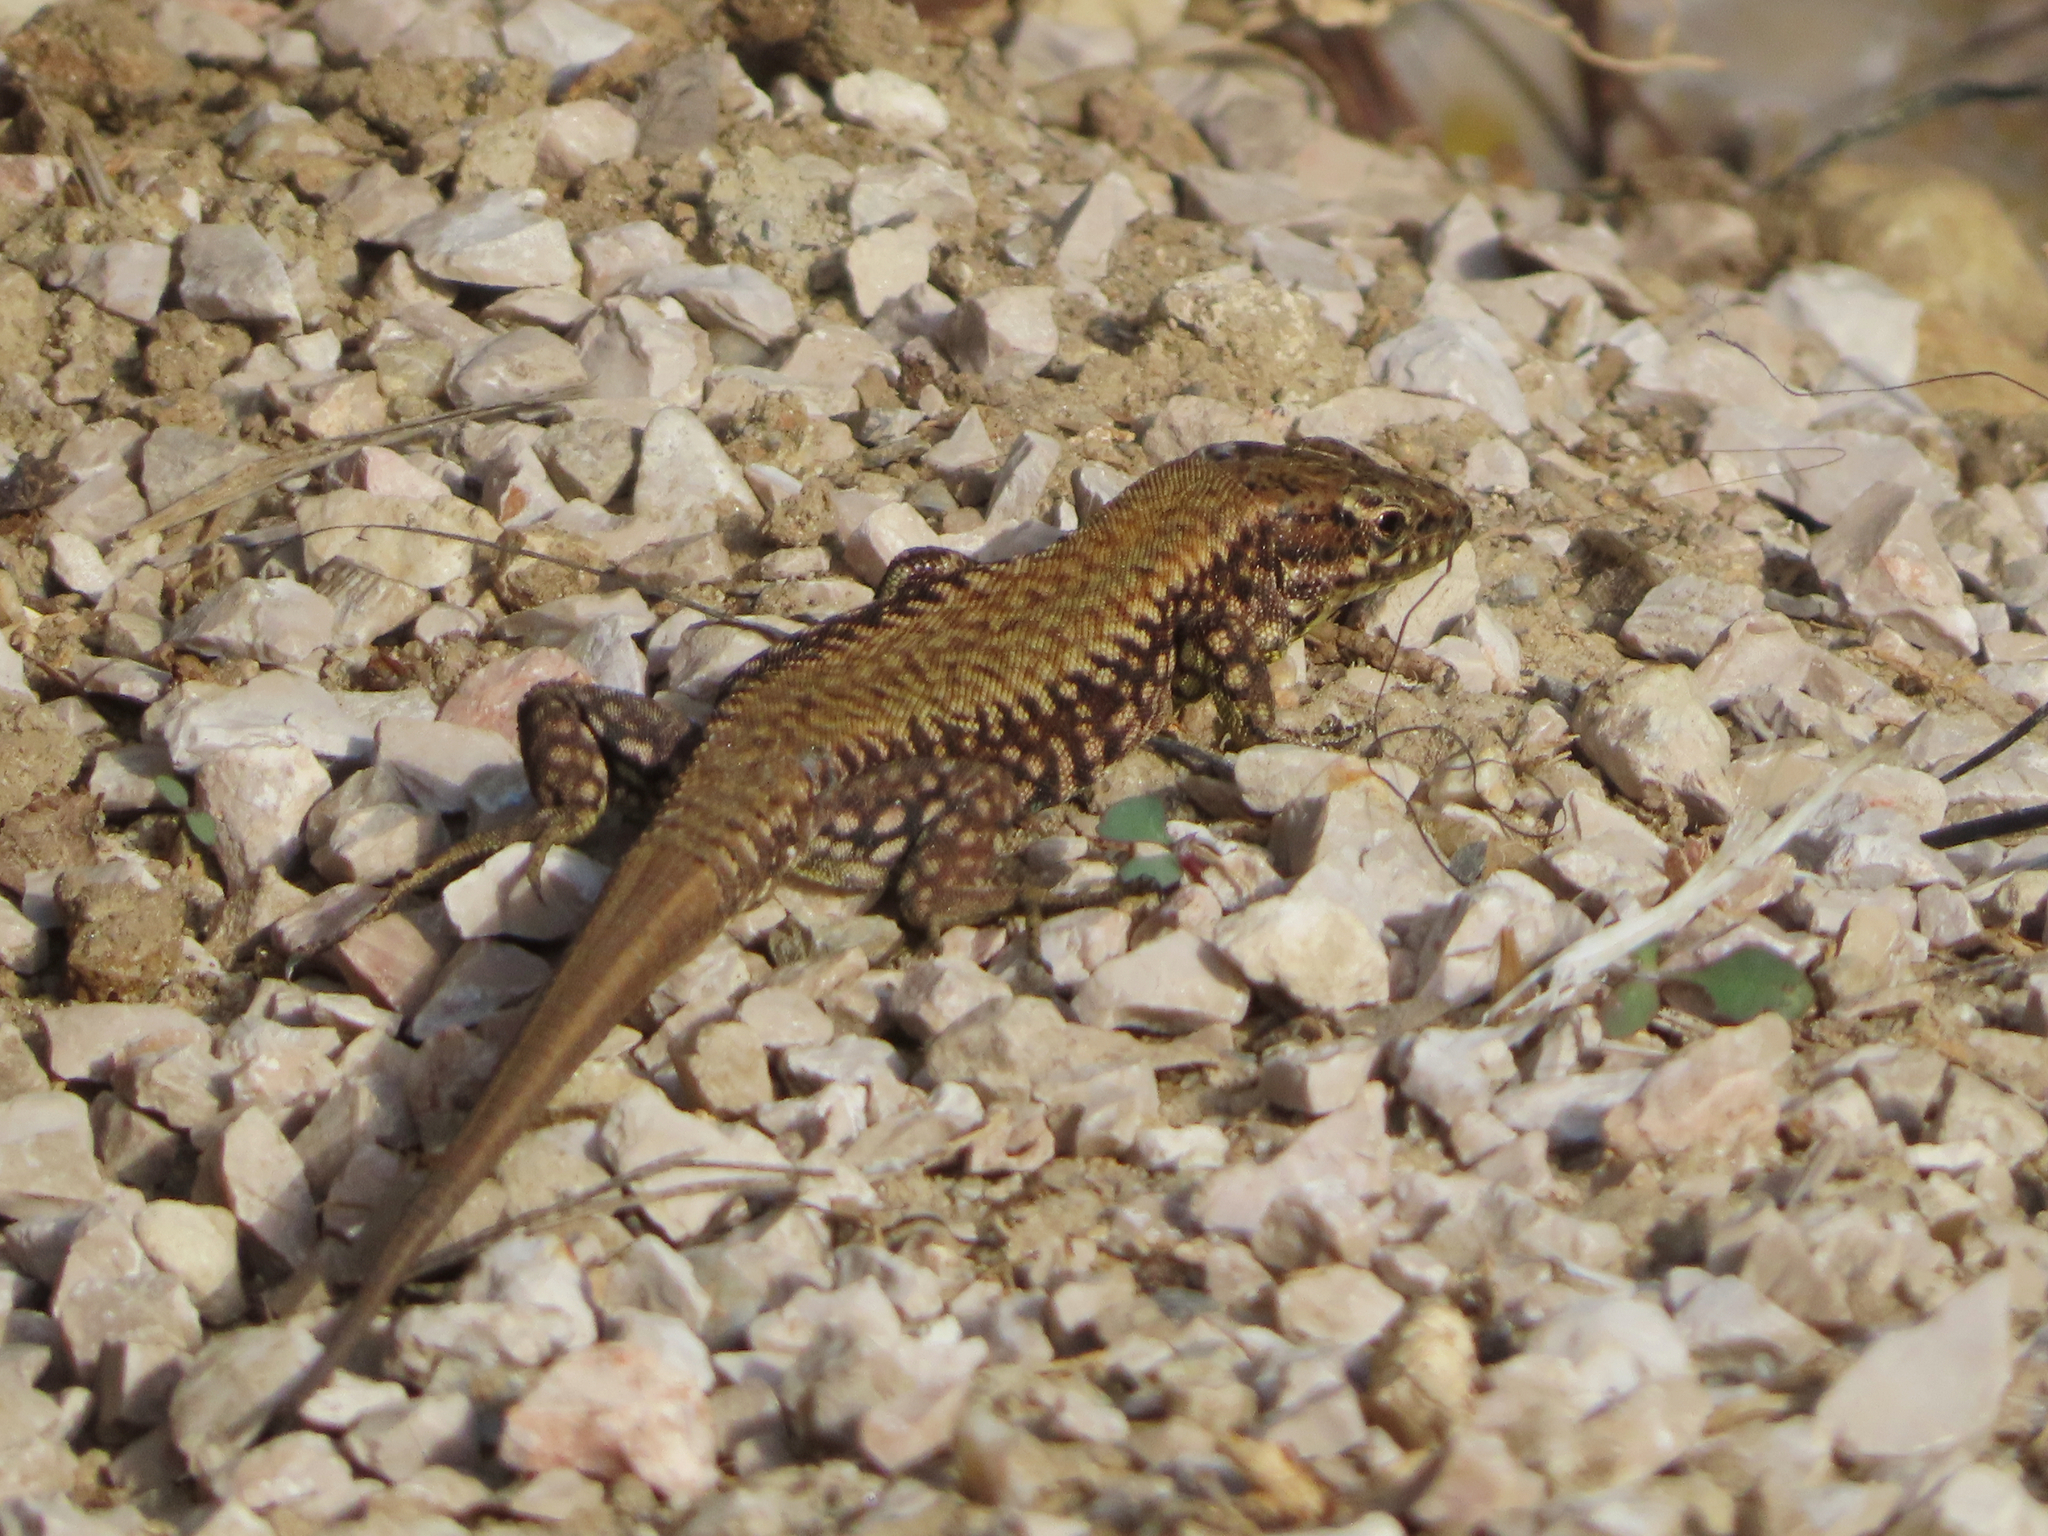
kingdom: Animalia
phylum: Chordata
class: Squamata
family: Lacertidae
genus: Podarcis
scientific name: Podarcis muralis
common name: Common wall lizard
